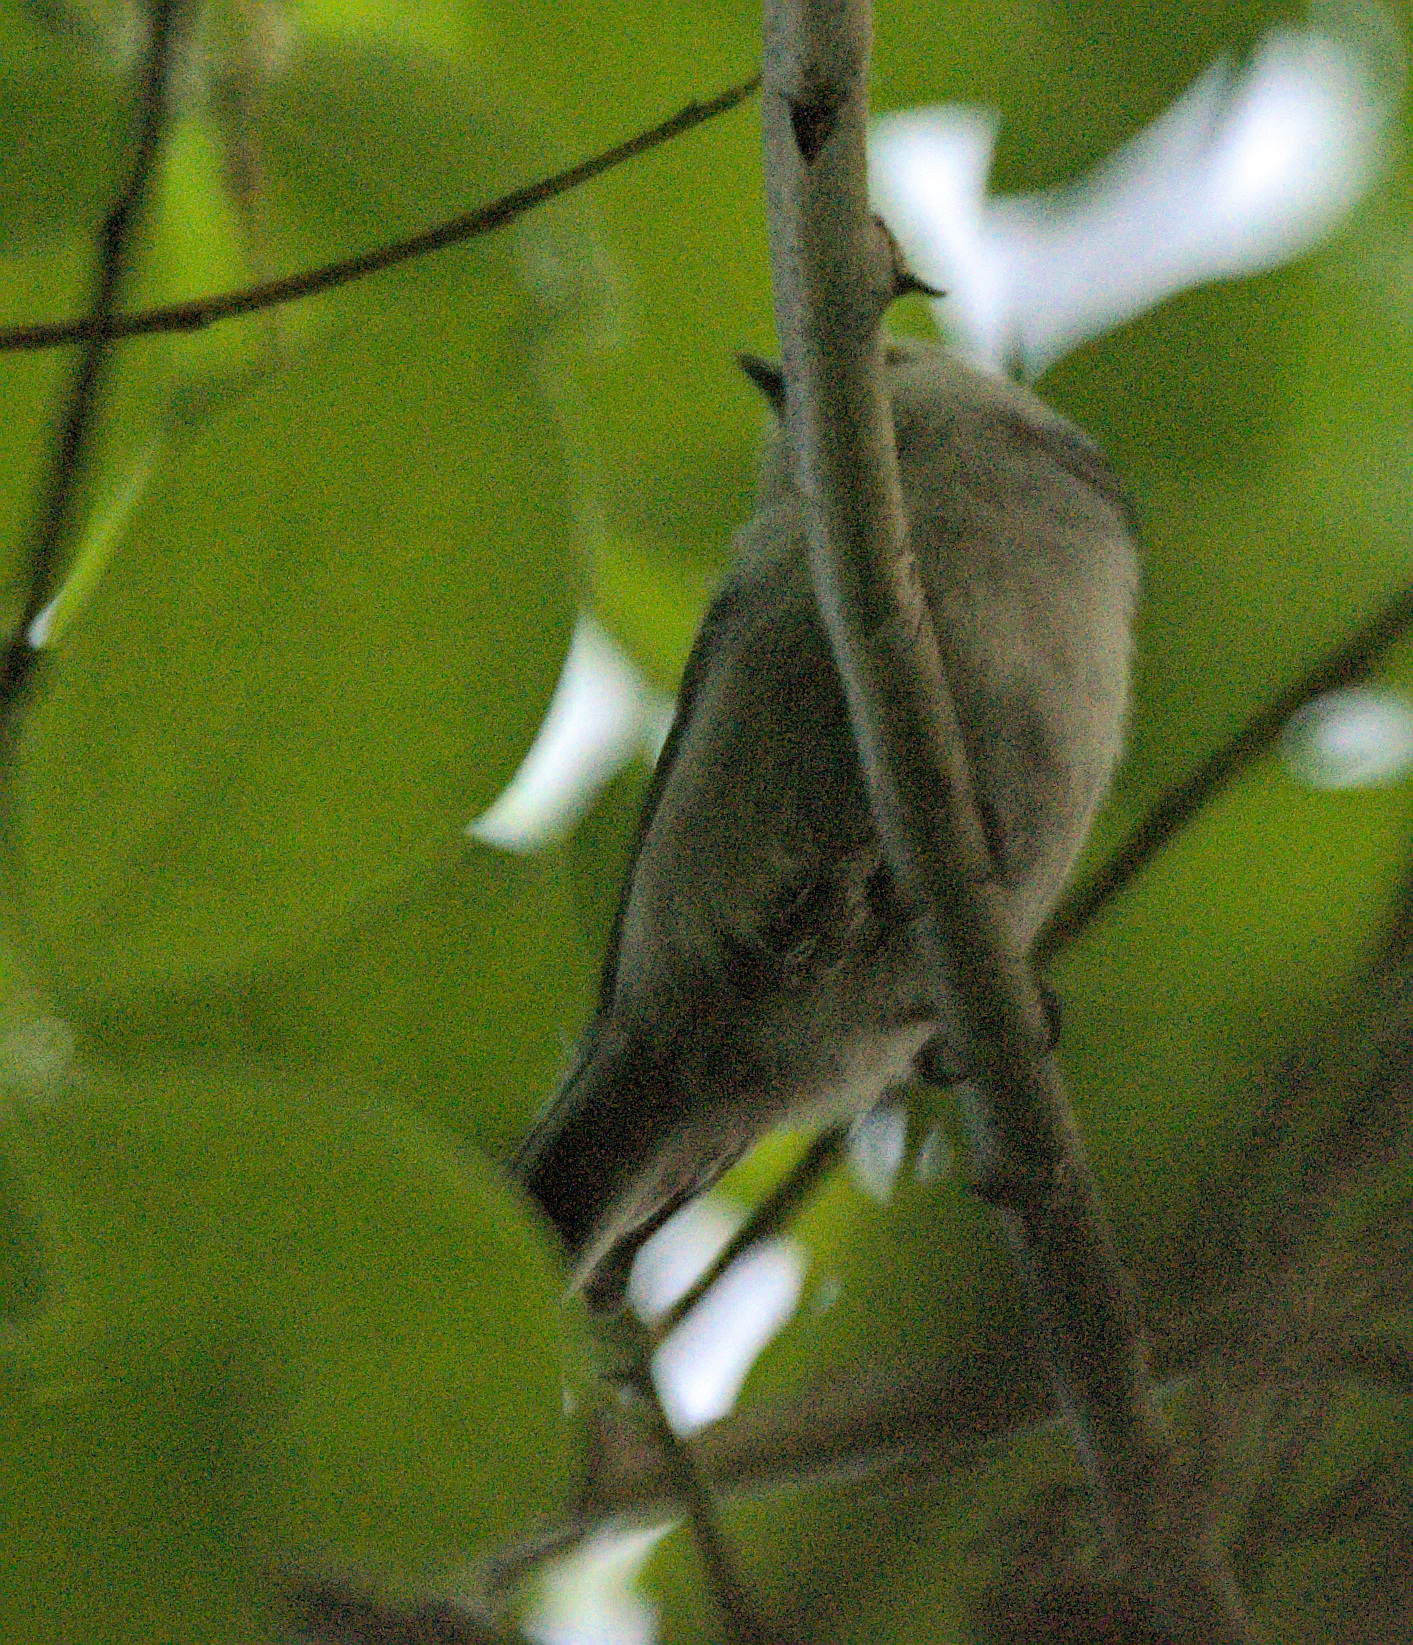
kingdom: Animalia
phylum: Chordata
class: Aves
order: Passeriformes
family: Aegithalidae
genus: Aegithalos
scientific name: Aegithalos caudatus
